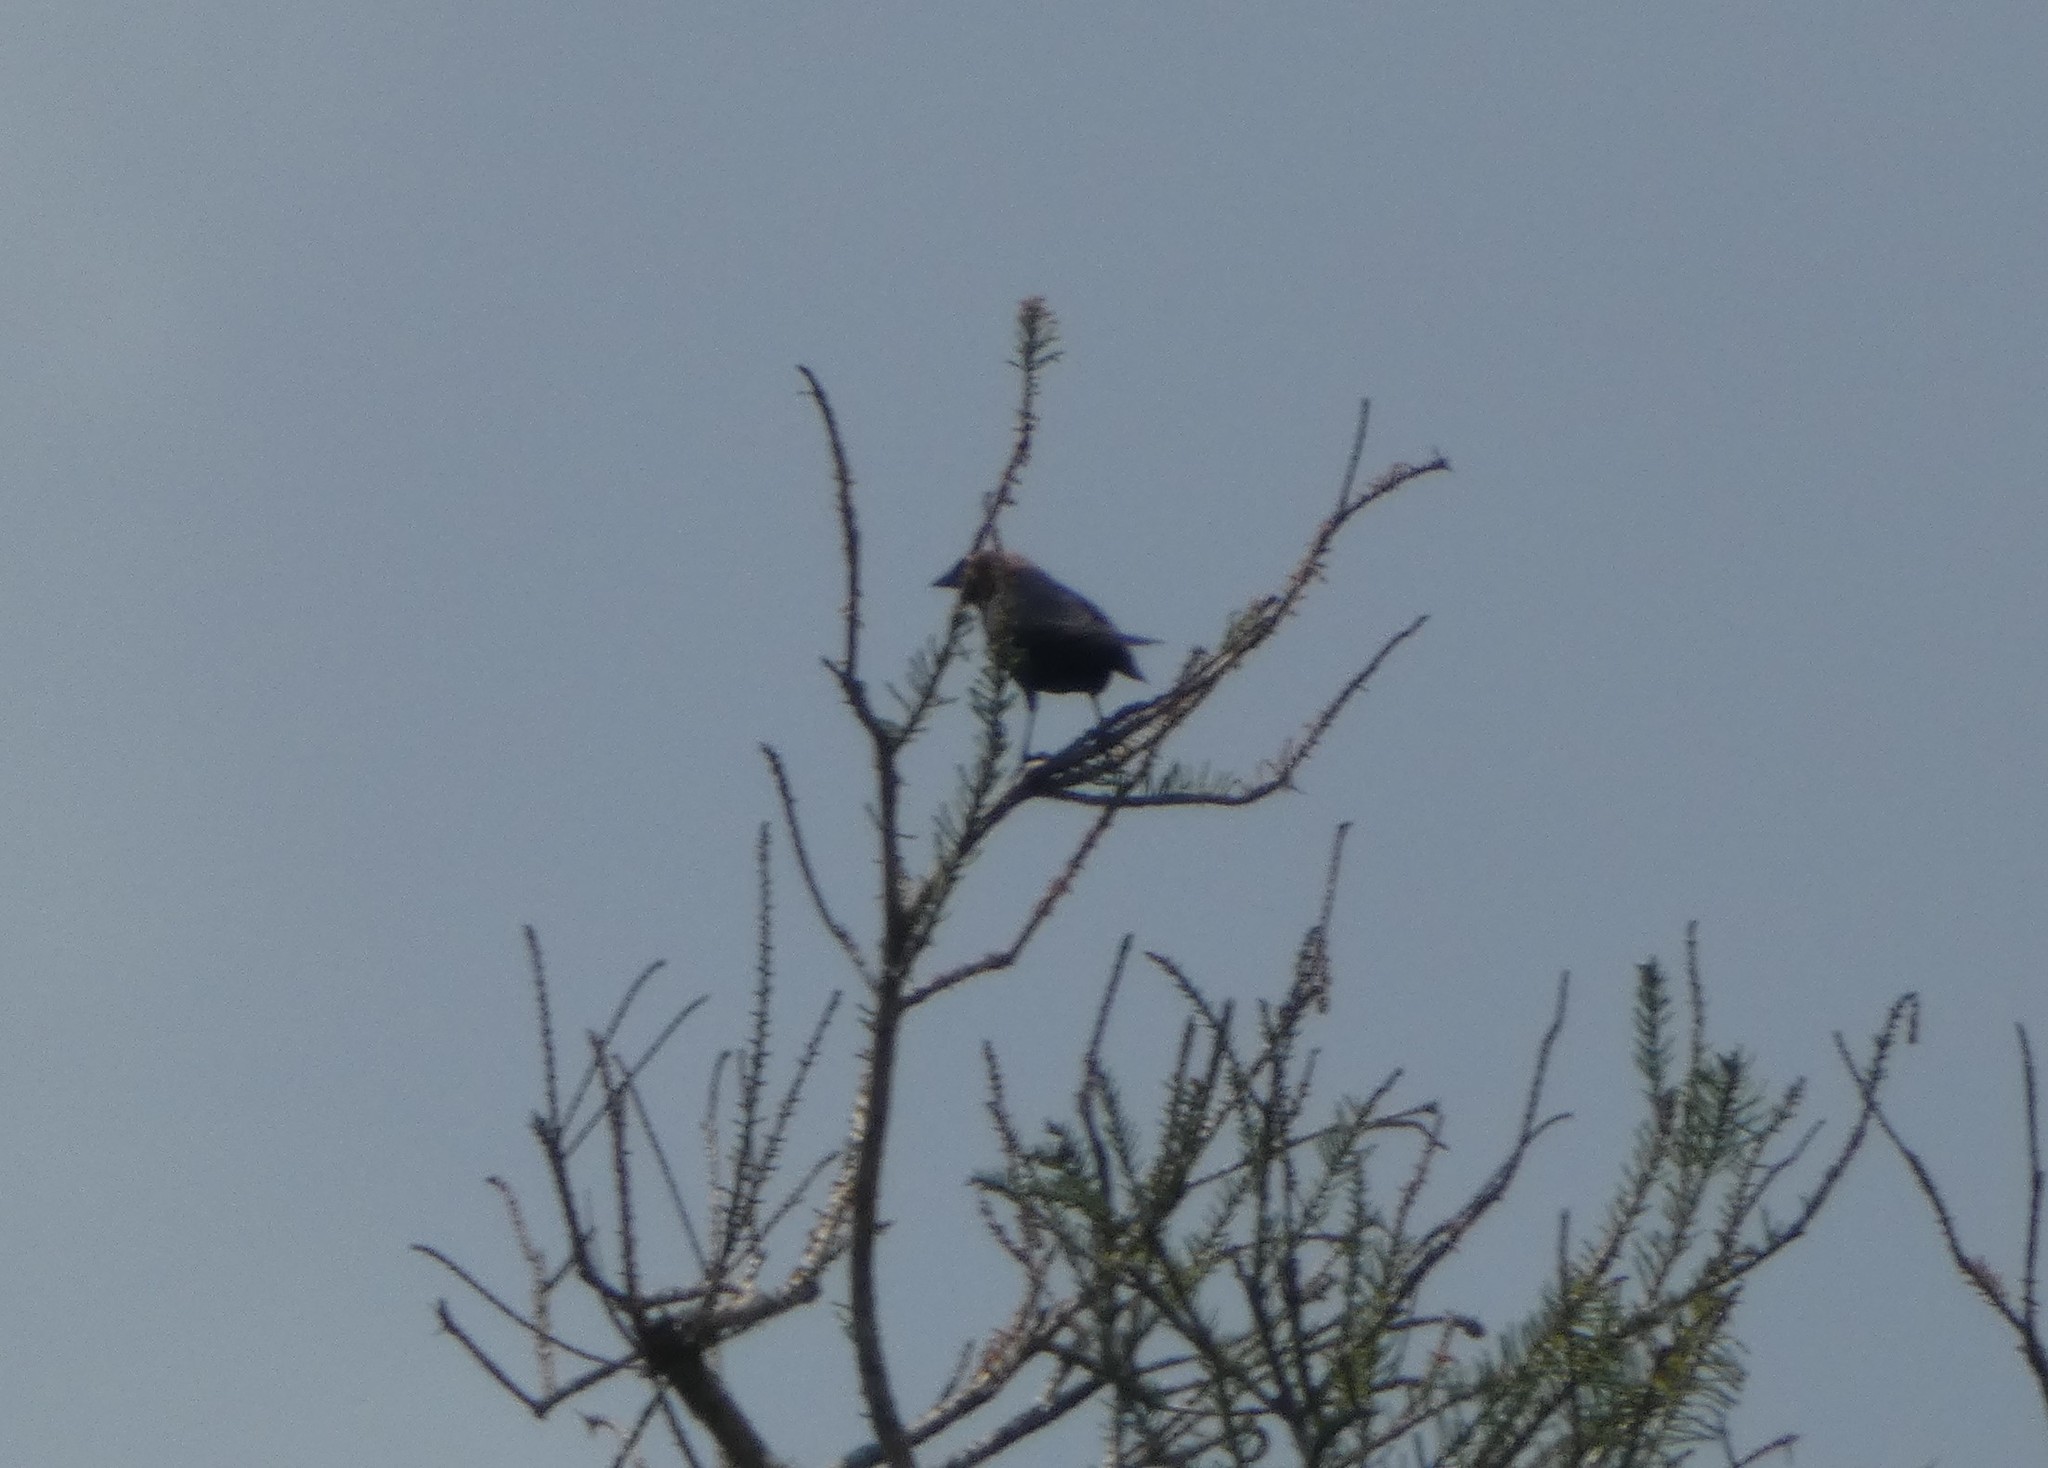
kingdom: Animalia
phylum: Chordata
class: Aves
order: Passeriformes
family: Icteridae
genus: Molothrus
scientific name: Molothrus ater
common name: Brown-headed cowbird
